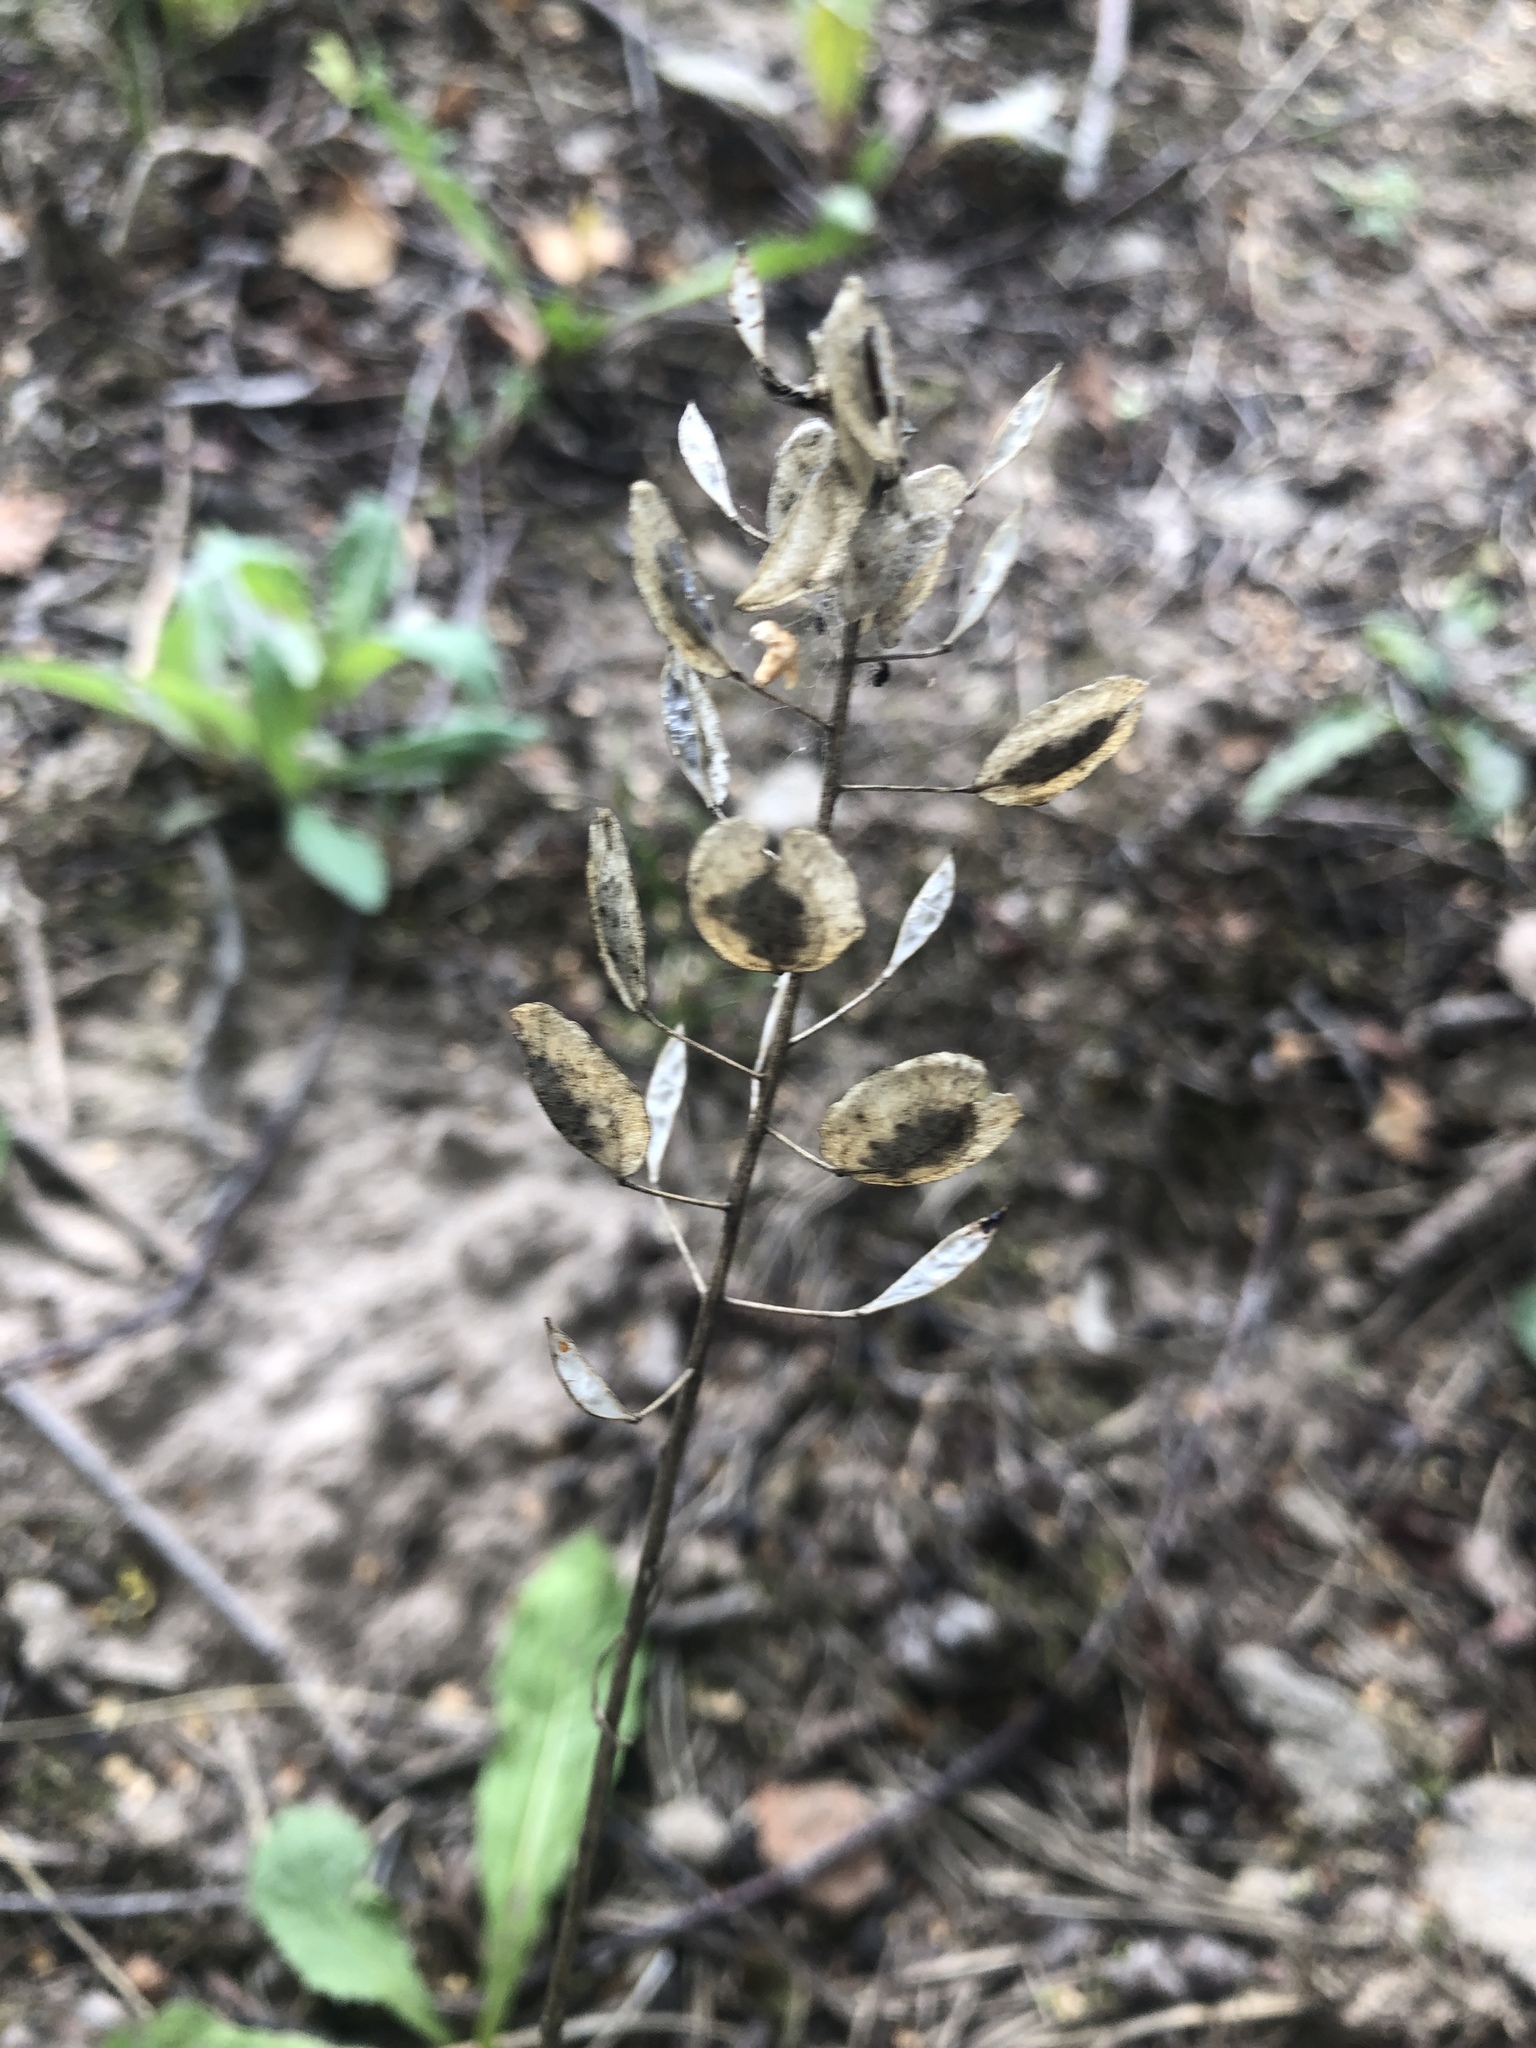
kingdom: Plantae
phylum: Tracheophyta
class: Magnoliopsida
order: Brassicales
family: Brassicaceae
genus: Thlaspi
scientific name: Thlaspi arvense
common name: Field pennycress
